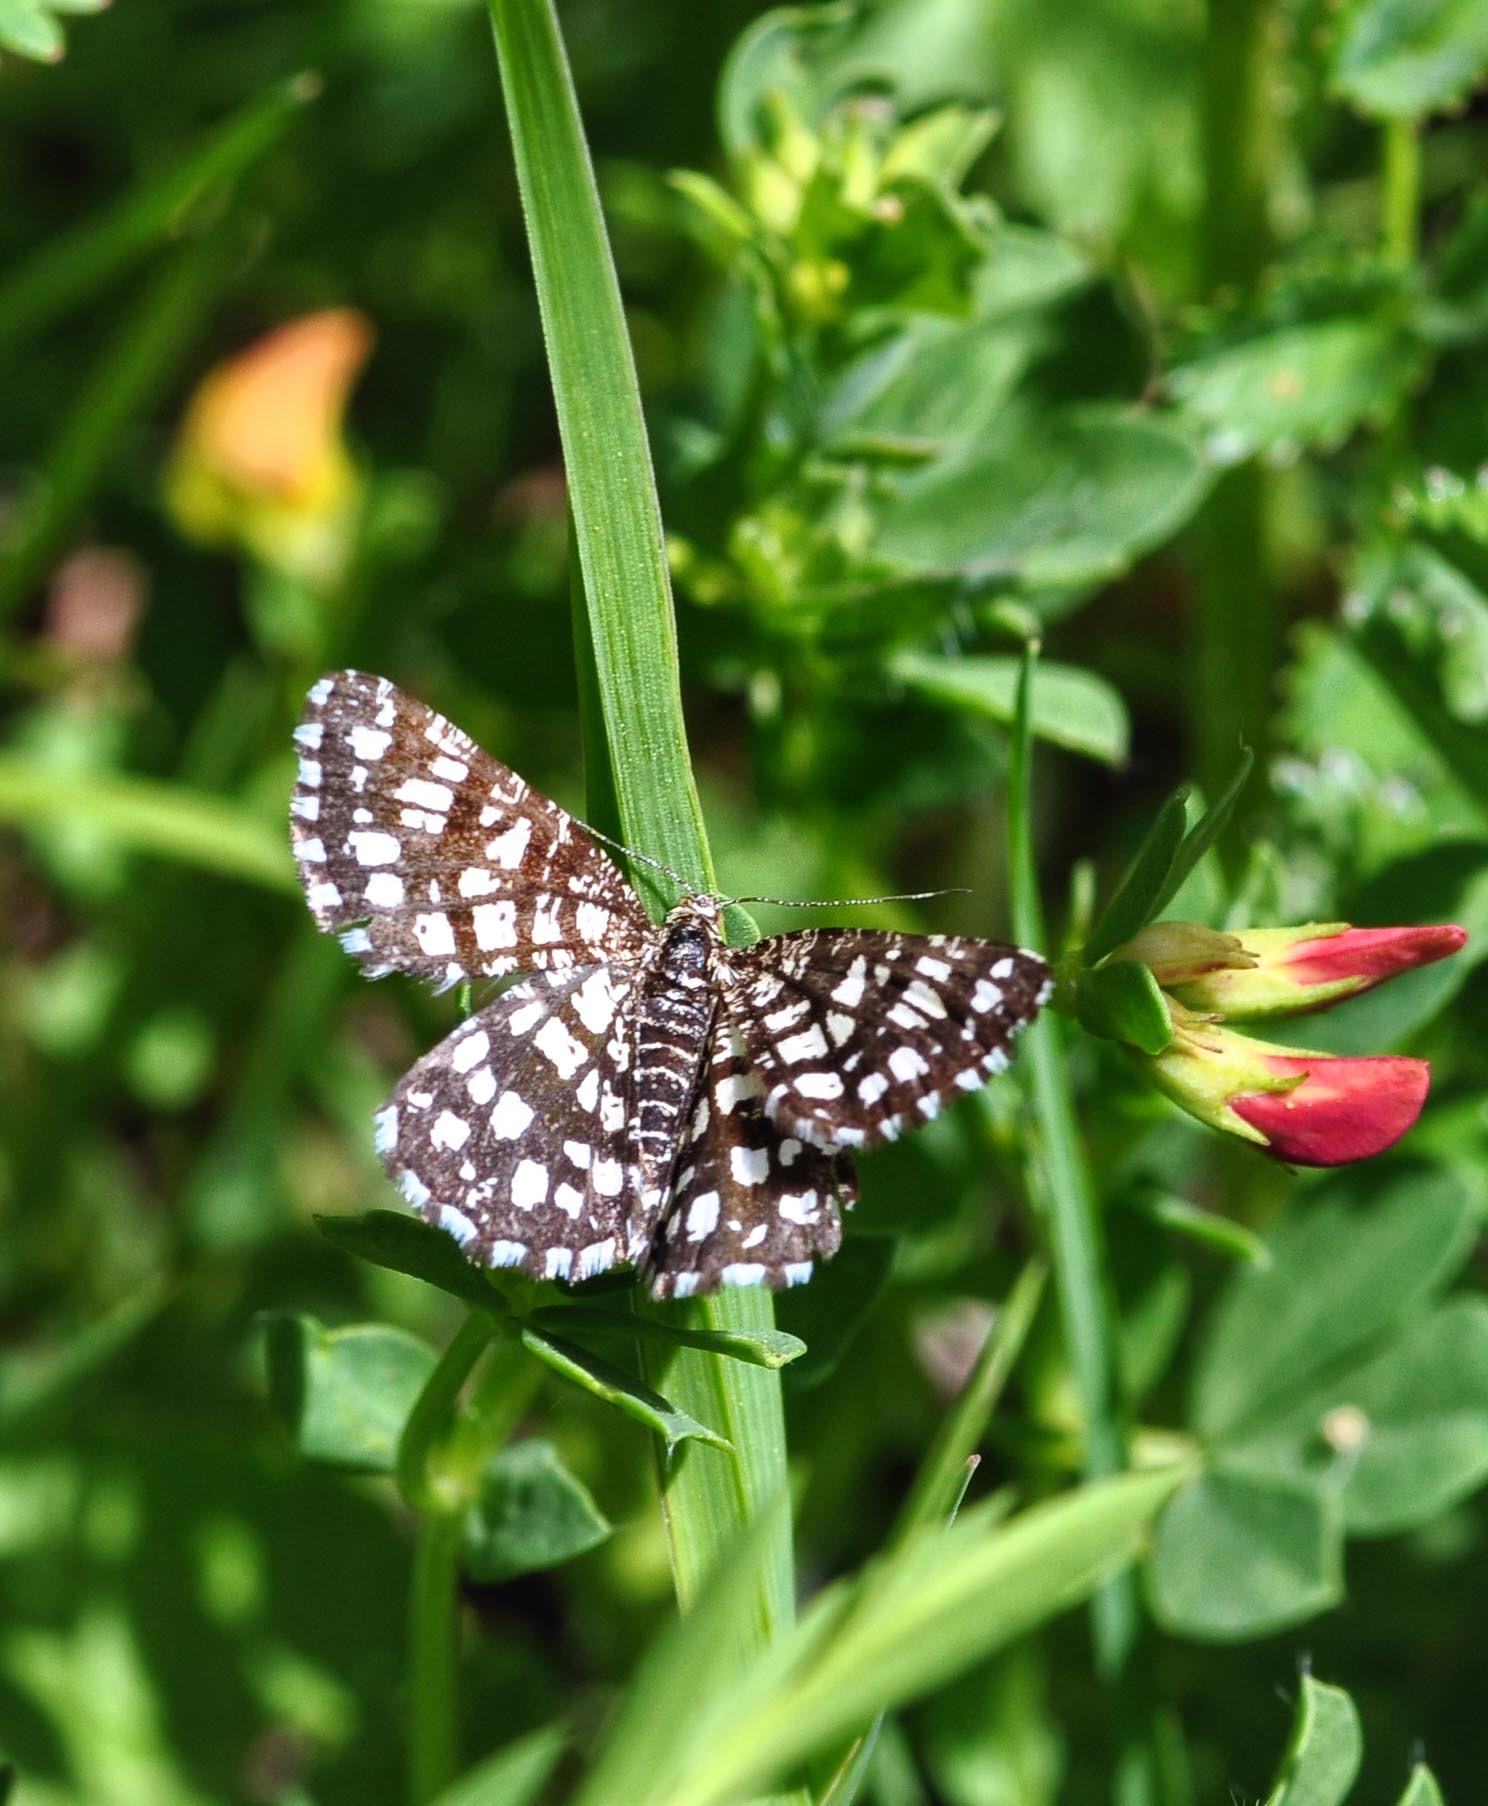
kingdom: Animalia
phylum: Arthropoda
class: Insecta
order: Lepidoptera
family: Geometridae
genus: Chiasmia
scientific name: Chiasmia clathrata
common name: Latticed heath
